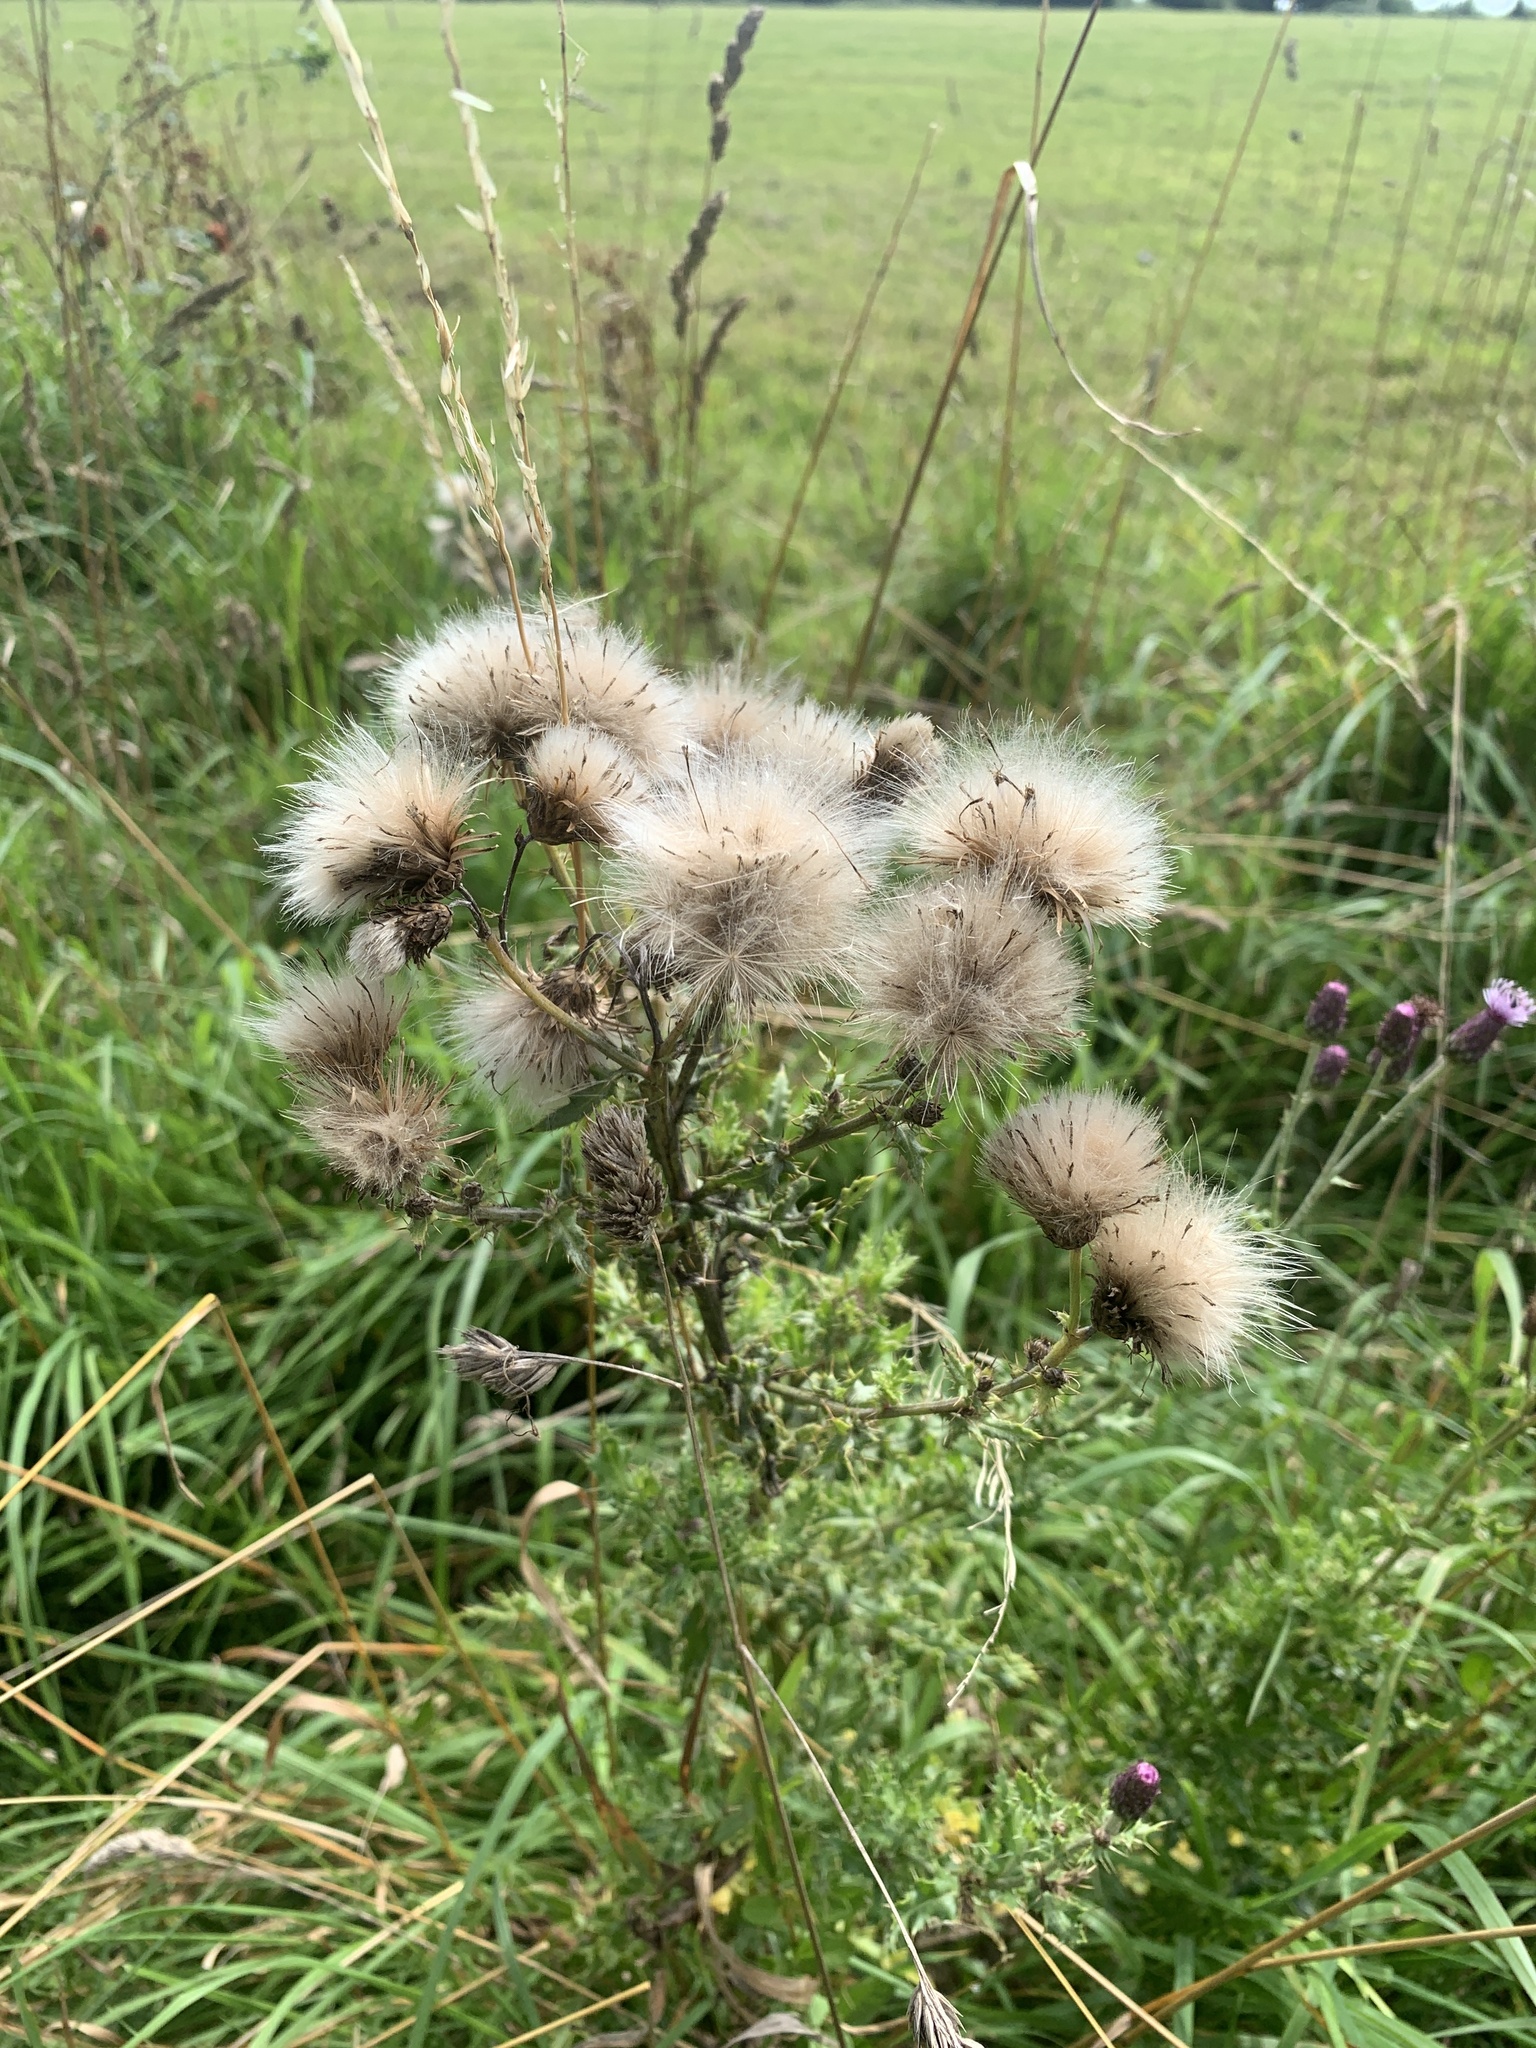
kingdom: Plantae
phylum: Tracheophyta
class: Magnoliopsida
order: Asterales
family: Asteraceae
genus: Cirsium
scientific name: Cirsium arvense
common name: Creeping thistle
